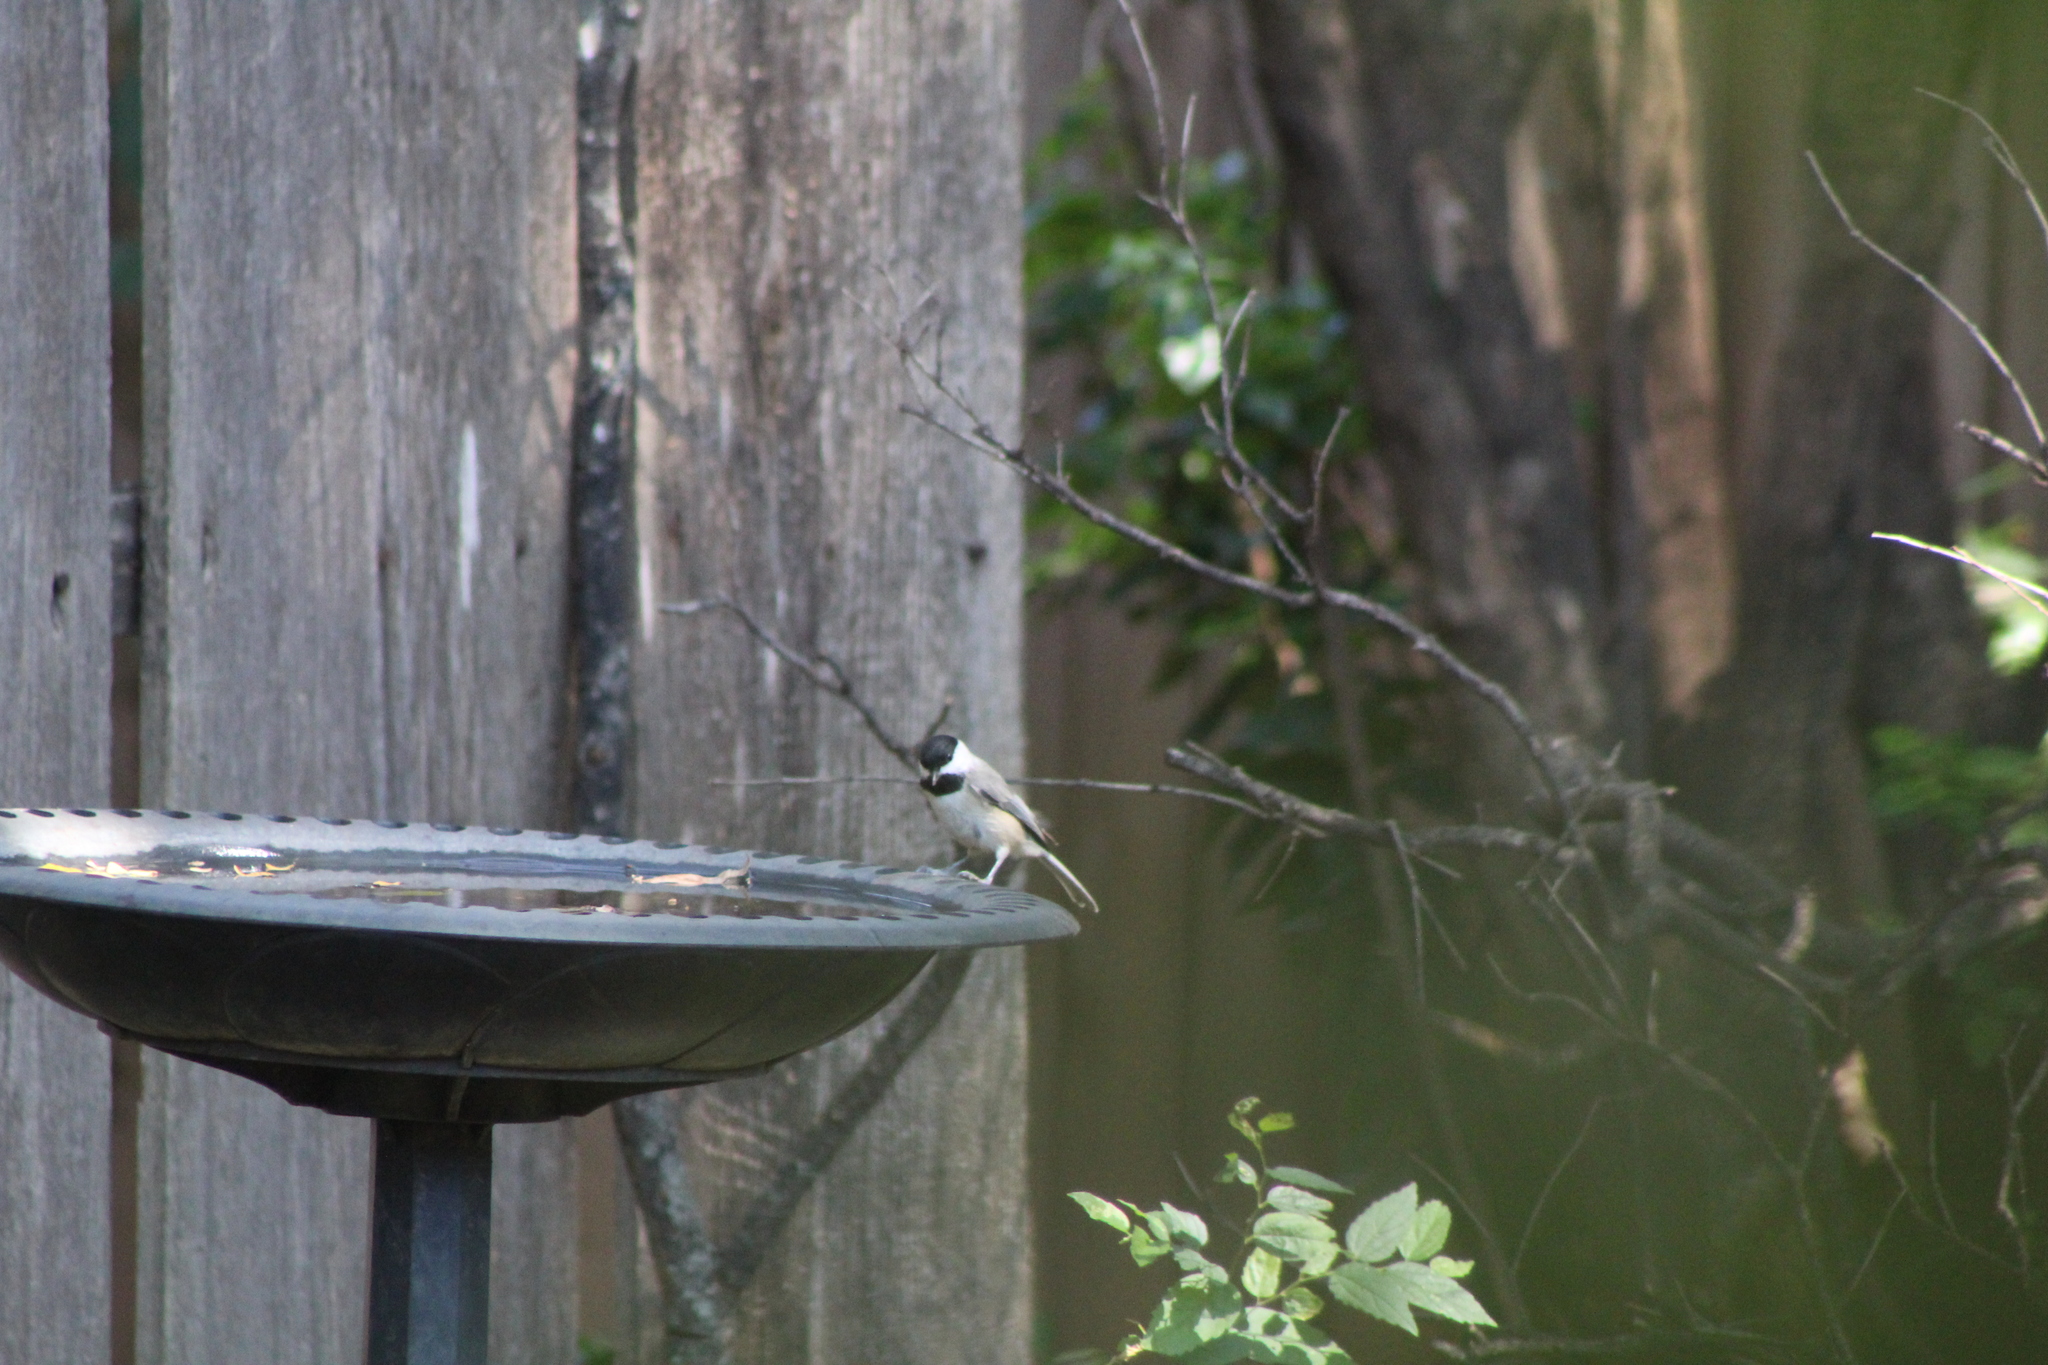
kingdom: Animalia
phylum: Chordata
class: Aves
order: Passeriformes
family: Paridae
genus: Poecile
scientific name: Poecile carolinensis
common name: Carolina chickadee
